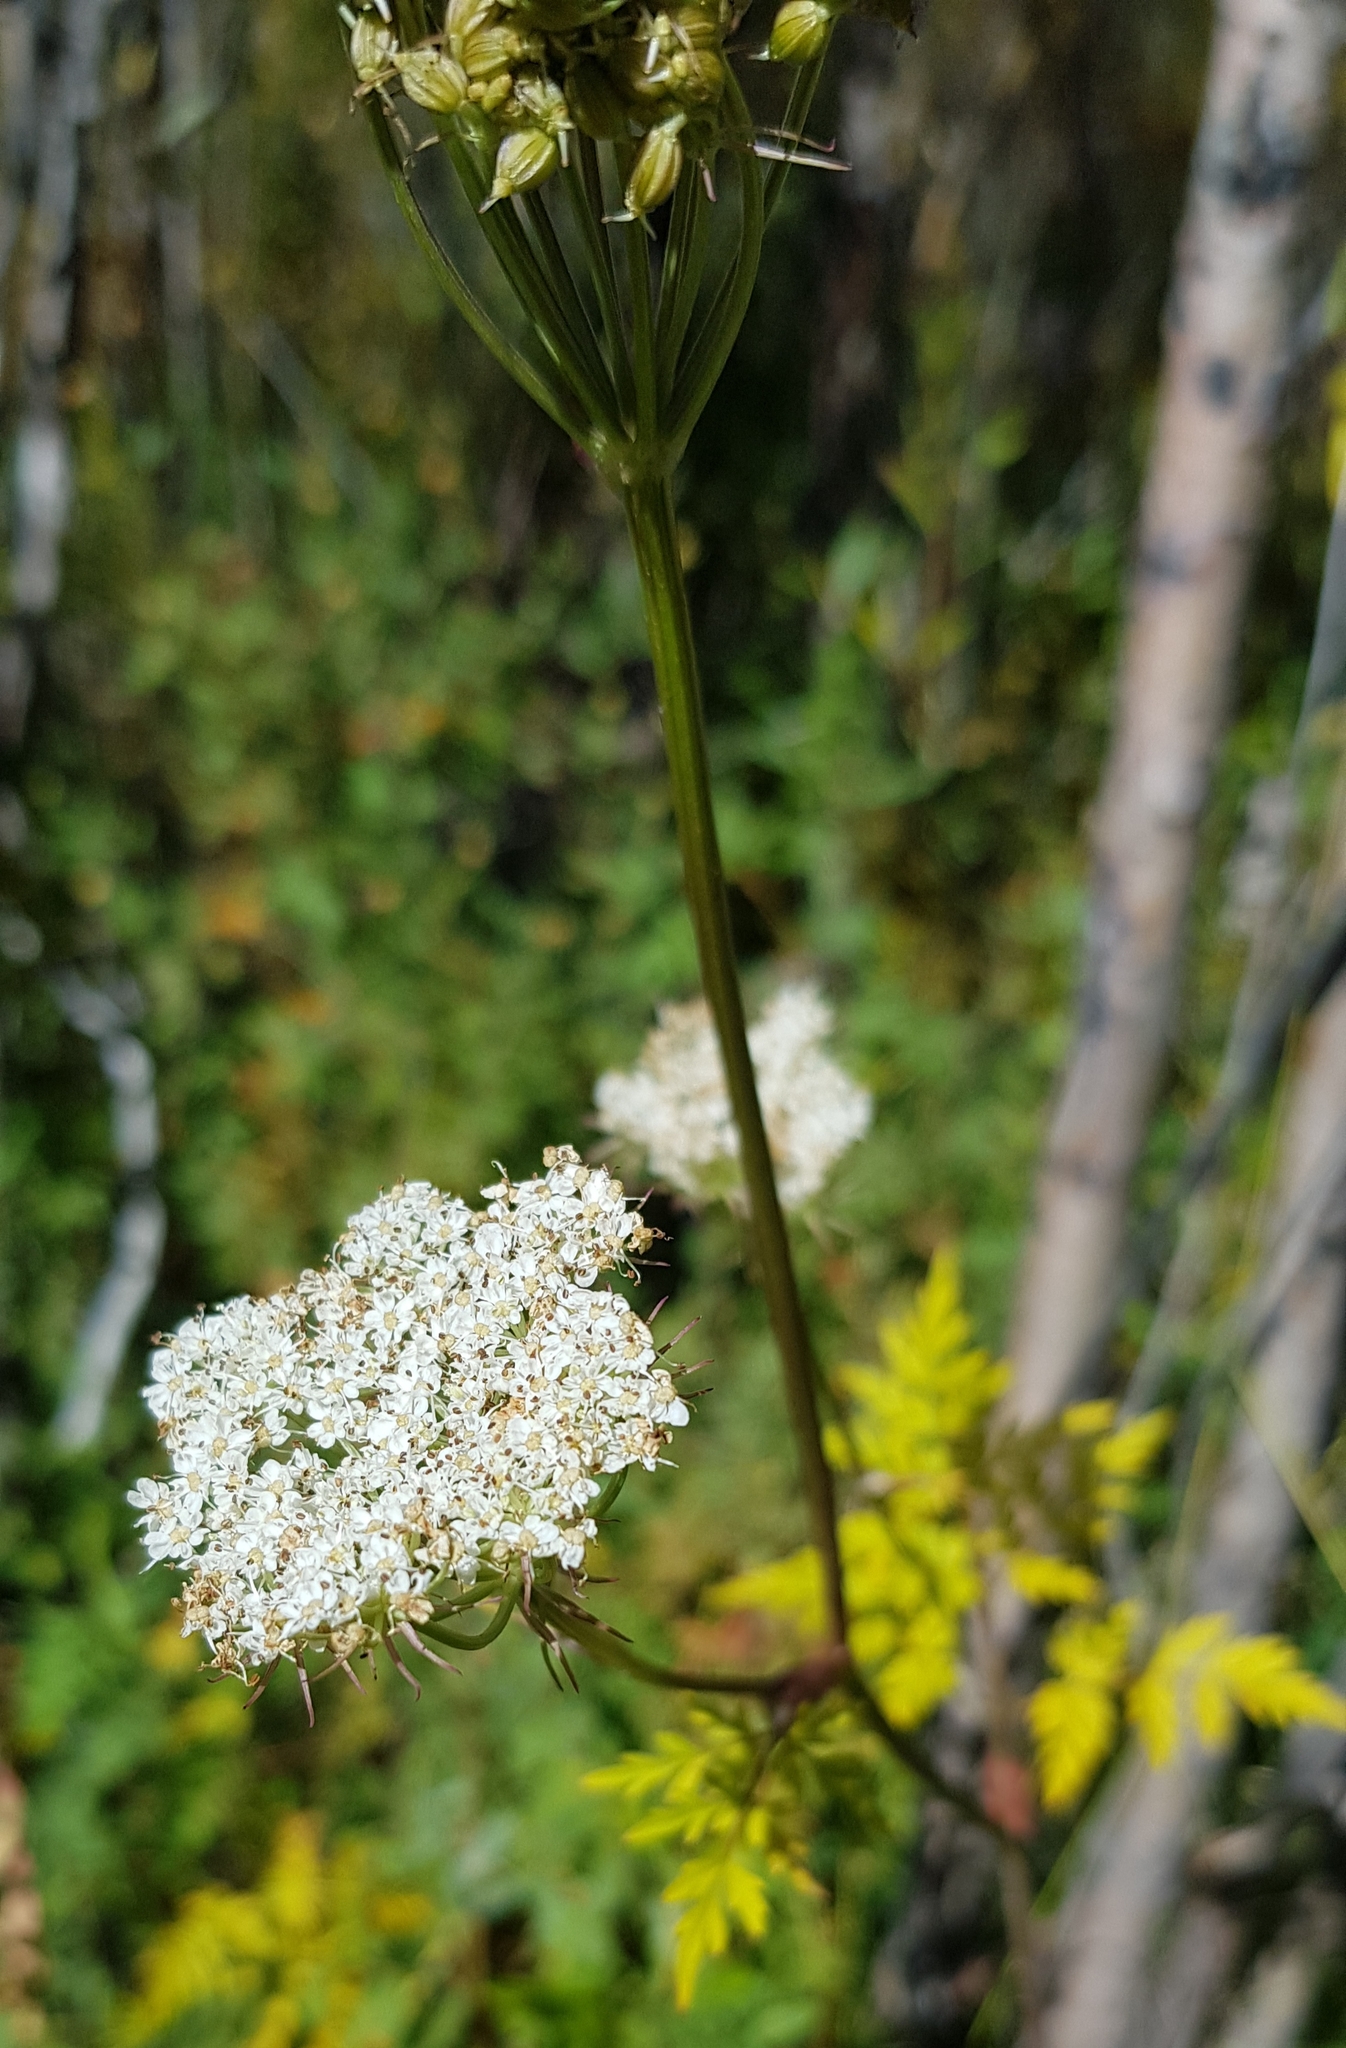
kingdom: Plantae
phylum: Tracheophyta
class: Magnoliopsida
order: Apiales
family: Apiaceae
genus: Conioselinum
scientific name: Conioselinum tataricum
